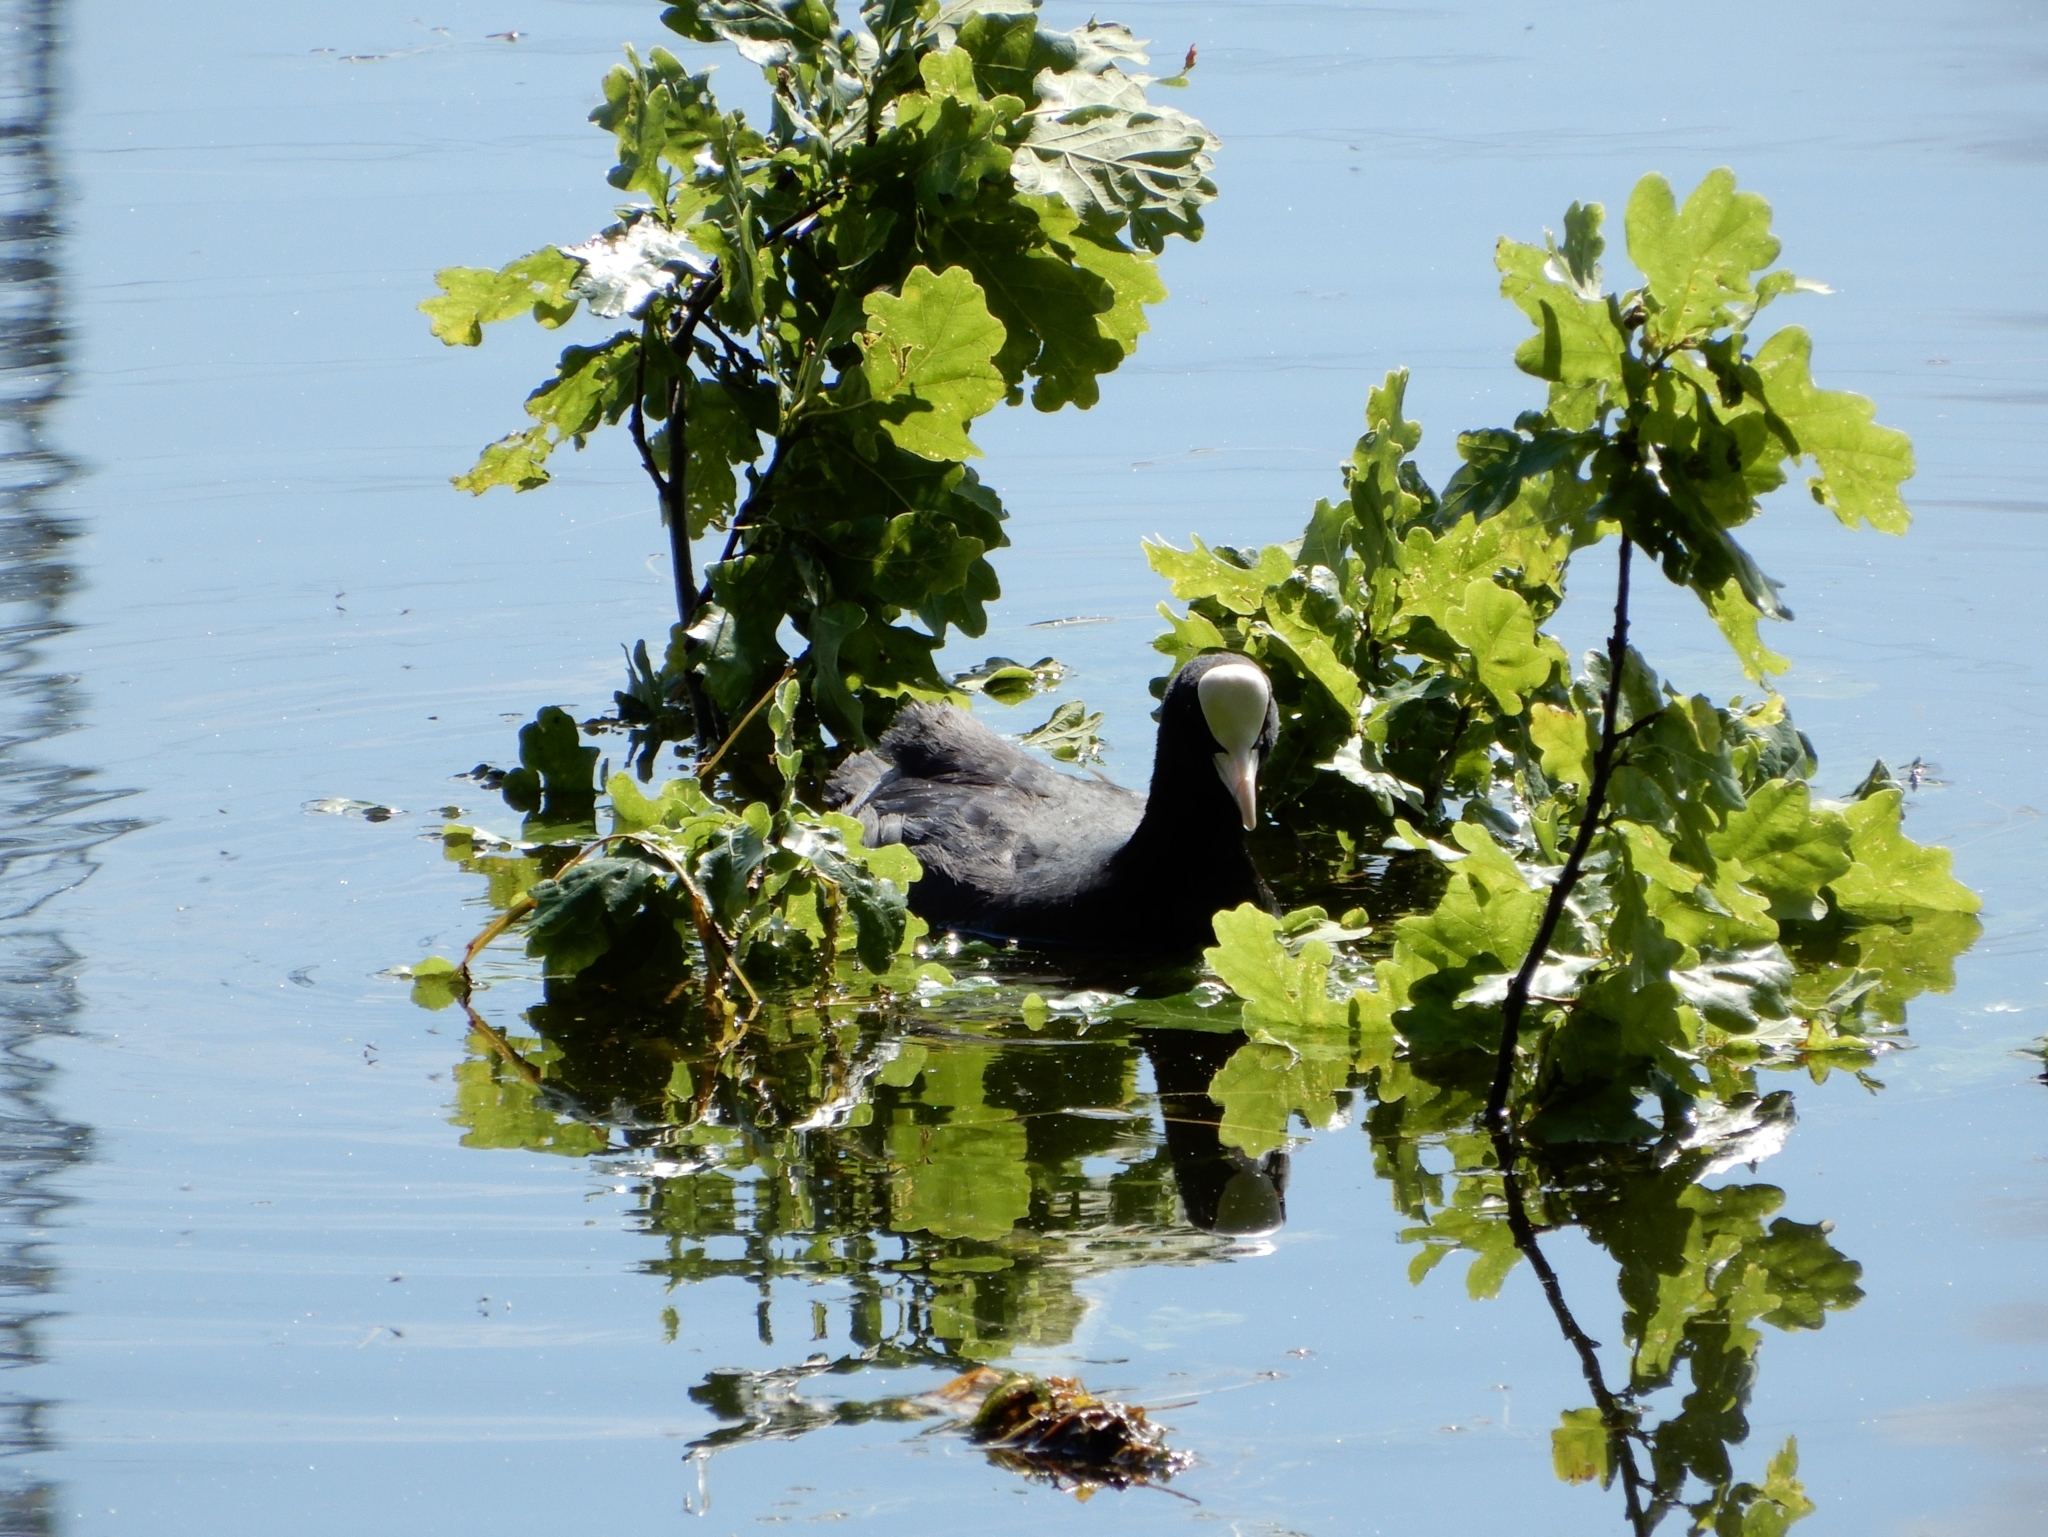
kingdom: Animalia
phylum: Chordata
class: Aves
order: Gruiformes
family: Rallidae
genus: Fulica
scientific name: Fulica atra
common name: Eurasian coot
